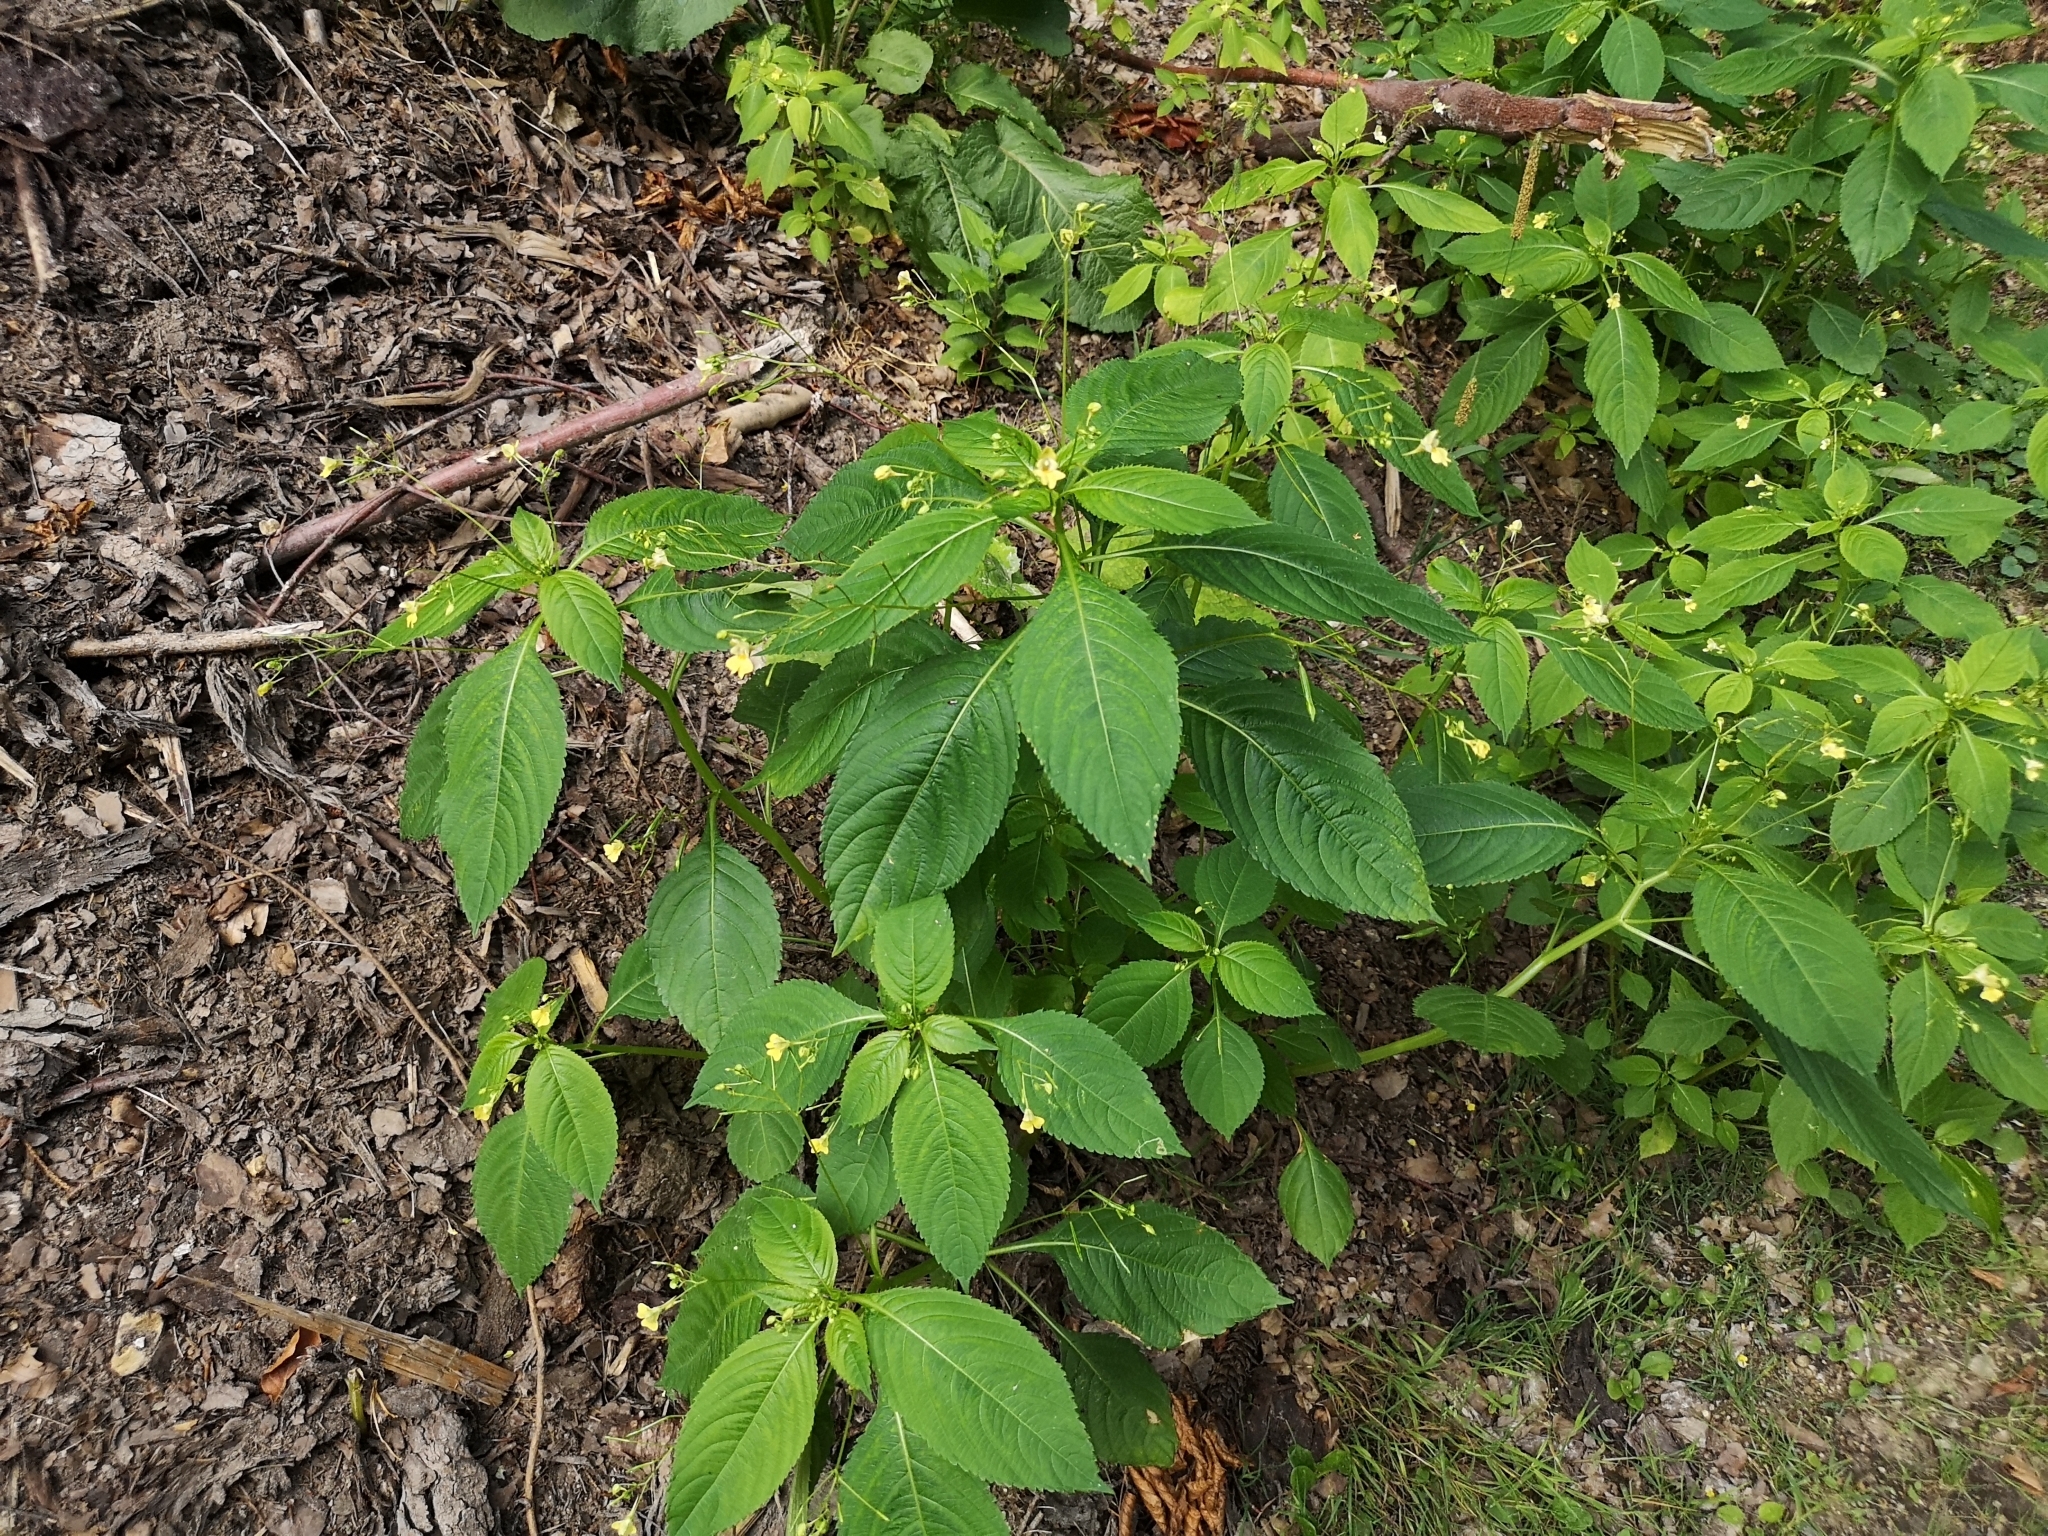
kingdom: Plantae
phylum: Tracheophyta
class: Magnoliopsida
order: Ericales
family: Balsaminaceae
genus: Impatiens
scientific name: Impatiens parviflora
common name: Small balsam
